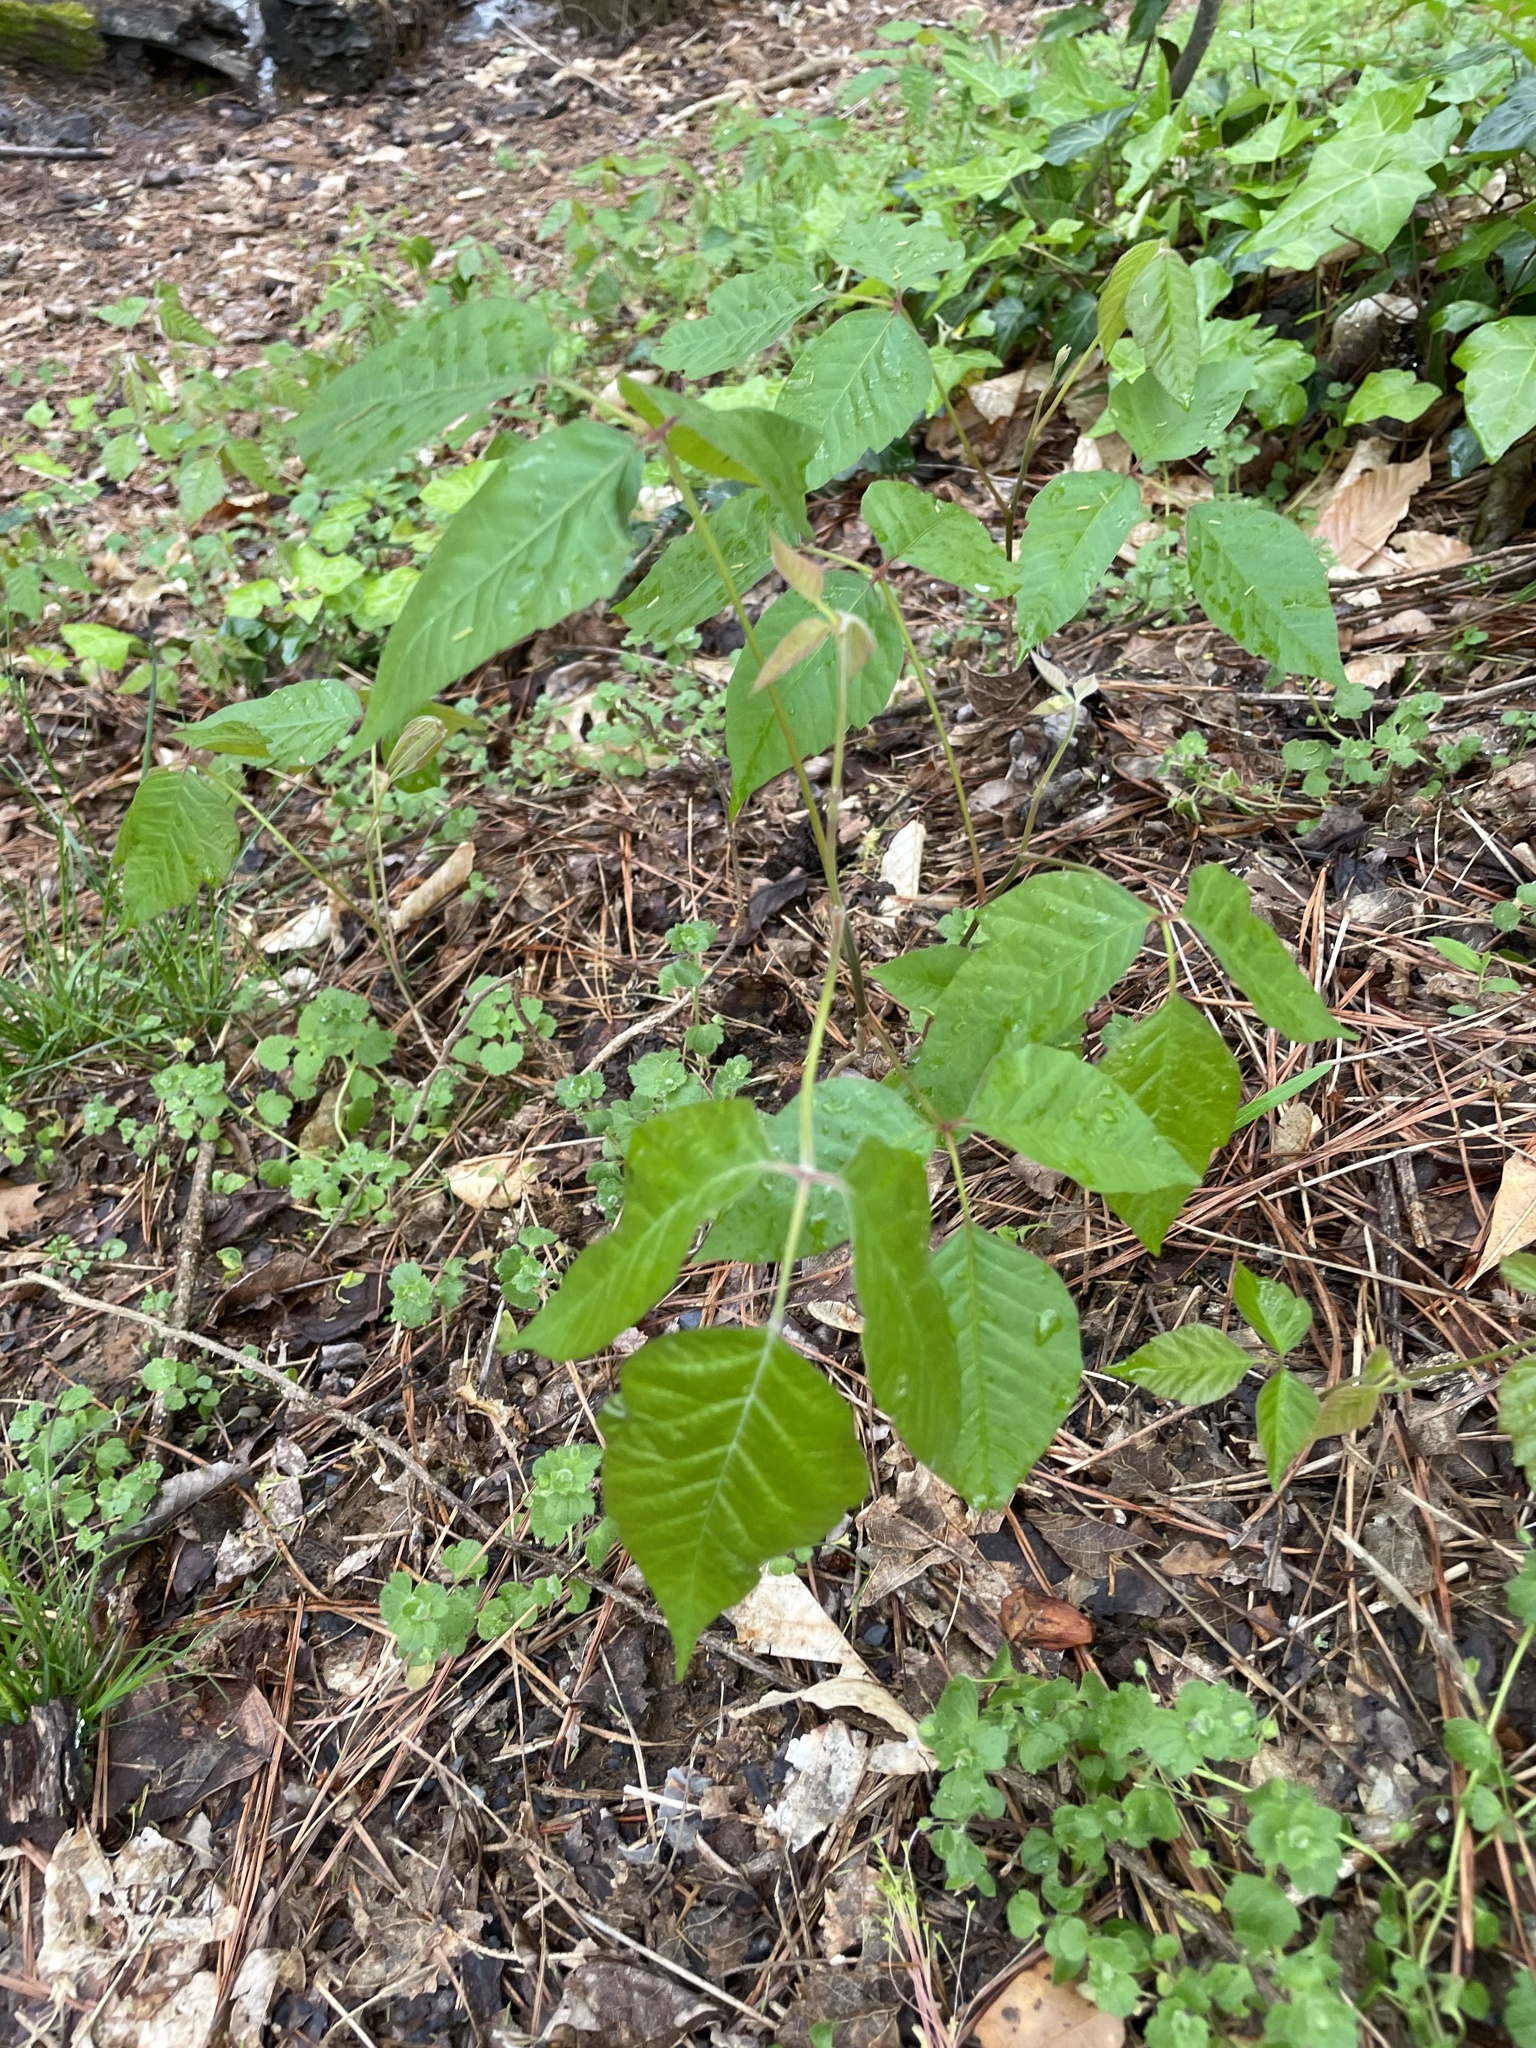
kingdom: Plantae
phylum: Tracheophyta
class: Magnoliopsida
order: Sapindales
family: Anacardiaceae
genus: Toxicodendron
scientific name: Toxicodendron radicans
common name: Poison ivy
